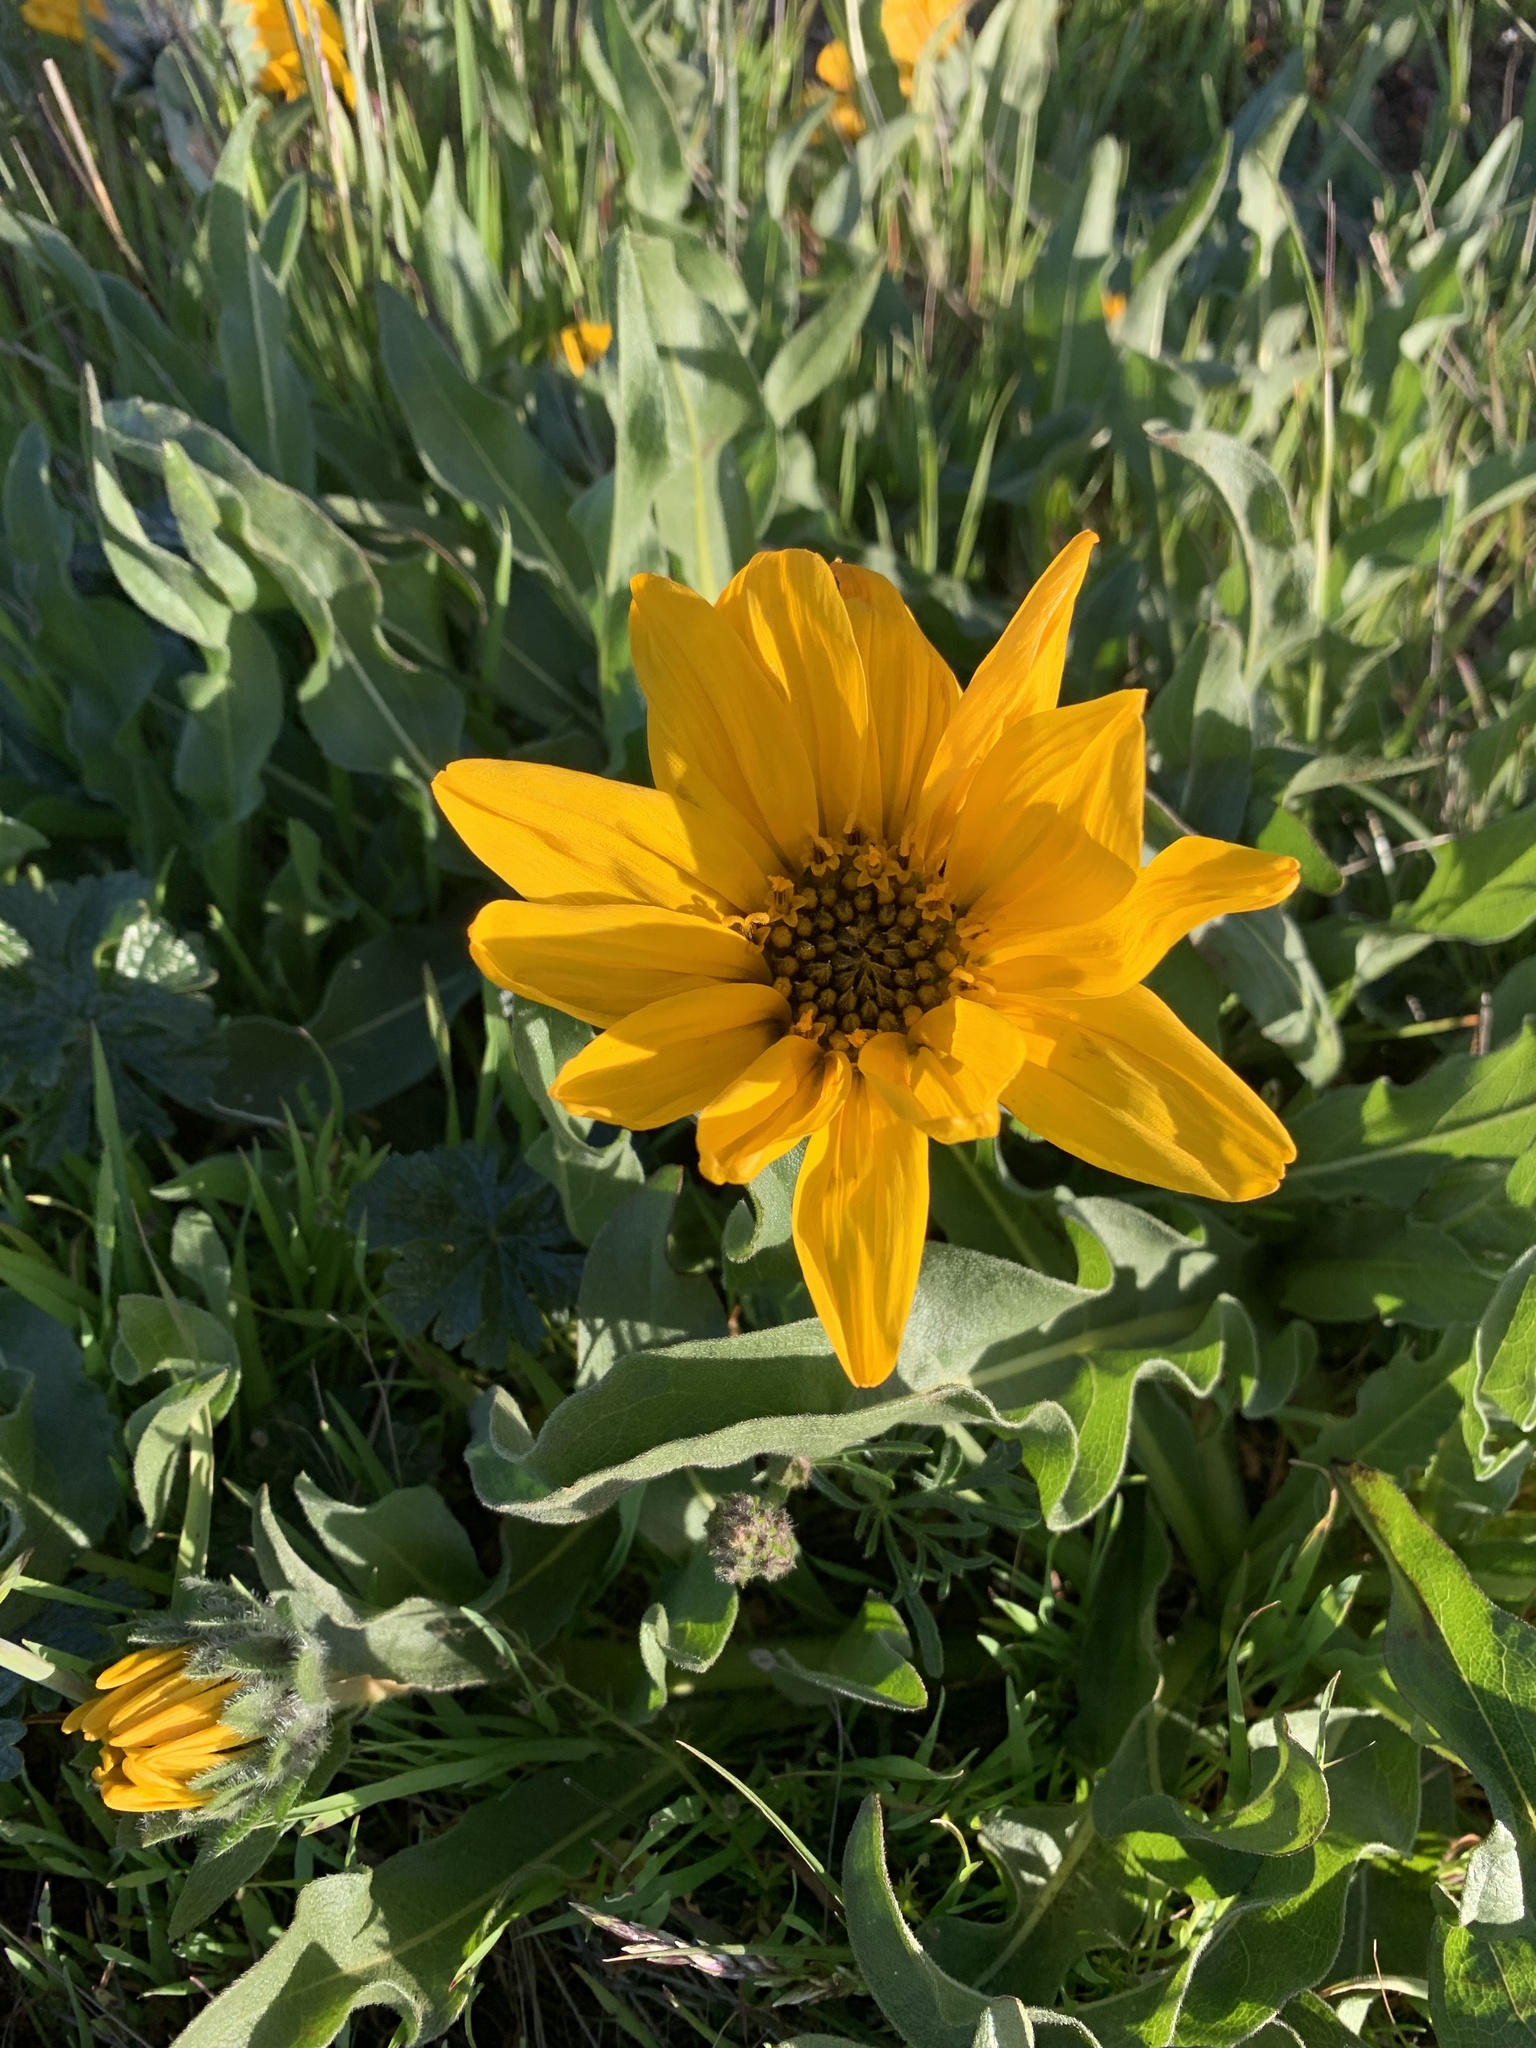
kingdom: Plantae
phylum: Tracheophyta
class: Magnoliopsida
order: Asterales
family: Asteraceae
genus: Wyethia
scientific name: Wyethia angustifolia
